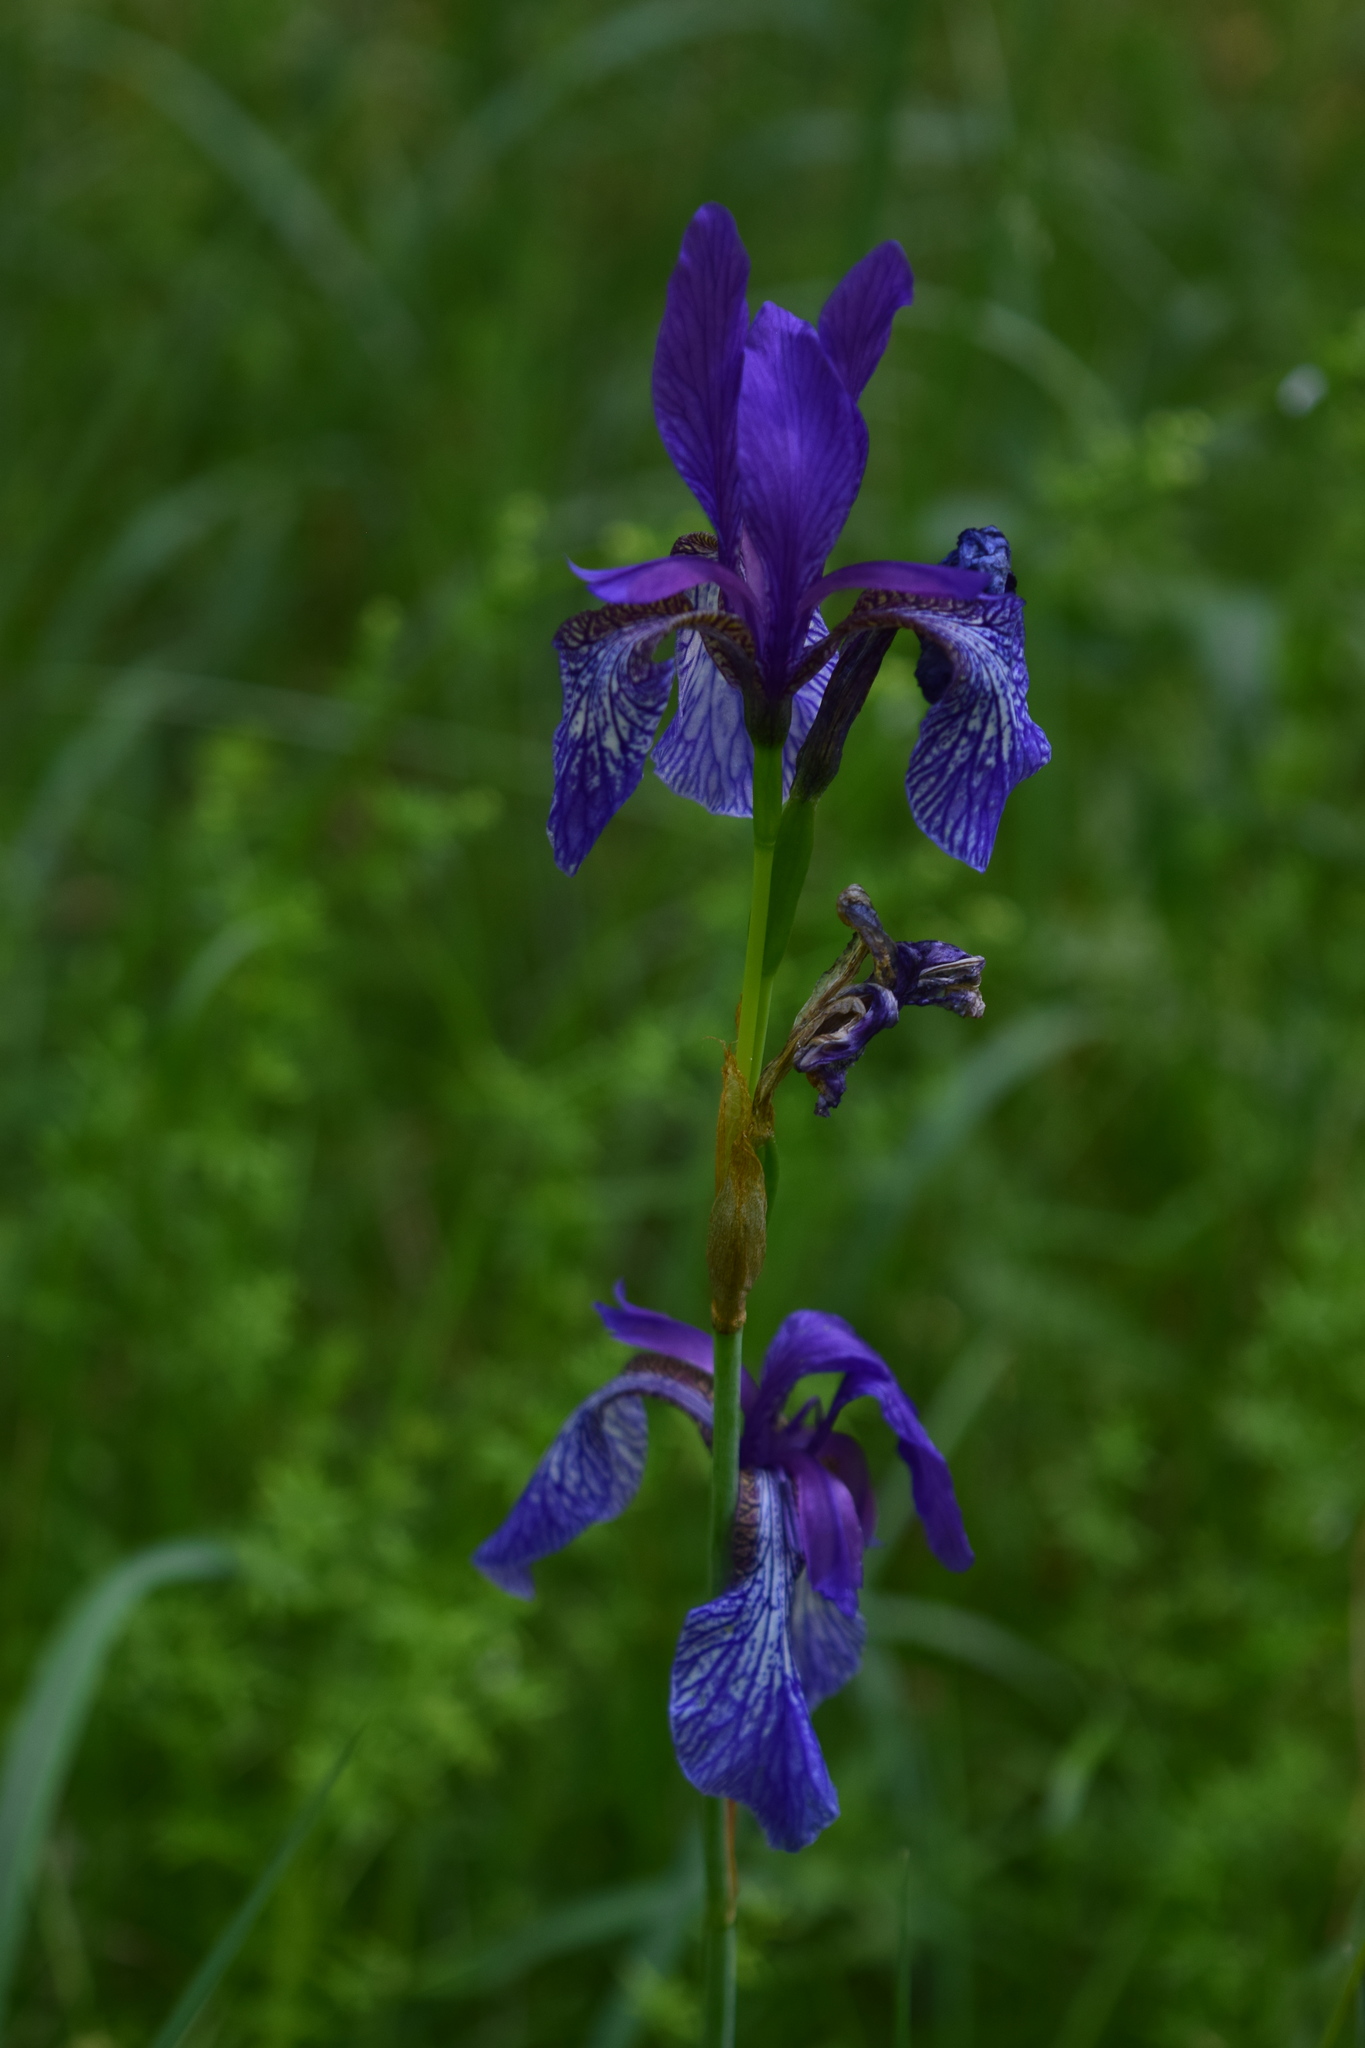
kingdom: Plantae
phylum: Tracheophyta
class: Liliopsida
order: Asparagales
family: Iridaceae
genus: Iris
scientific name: Iris sibirica
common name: Siberian iris
